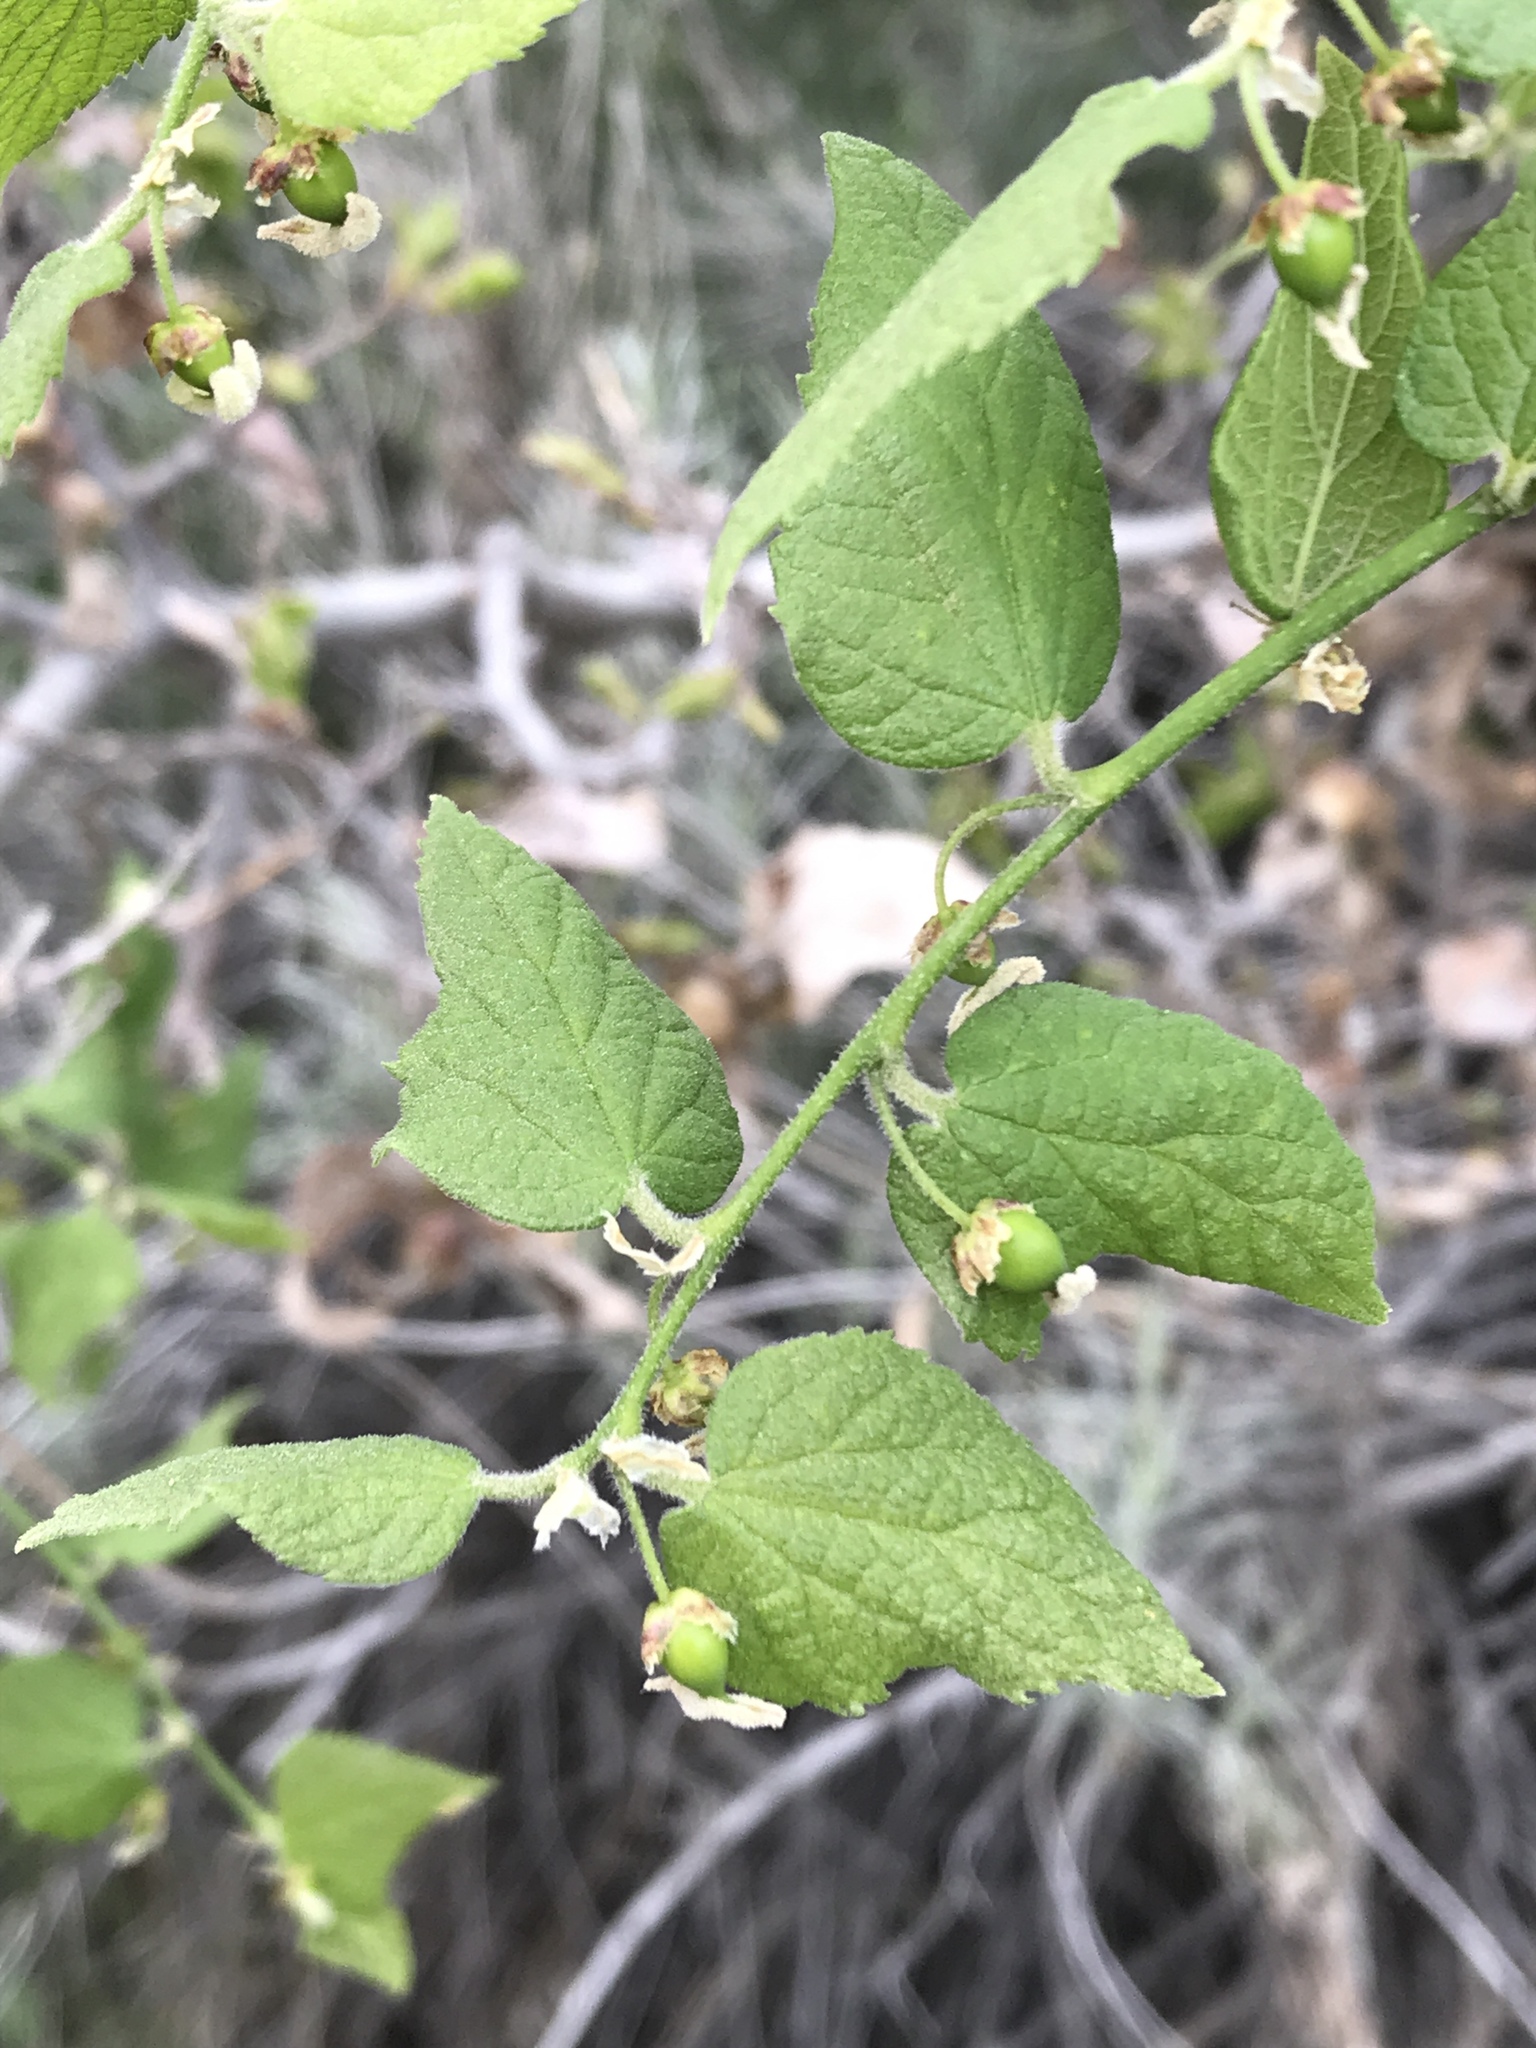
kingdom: Plantae
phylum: Tracheophyta
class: Magnoliopsida
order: Rosales
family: Cannabaceae
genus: Celtis
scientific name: Celtis reticulata
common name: Netleaf hackberry
